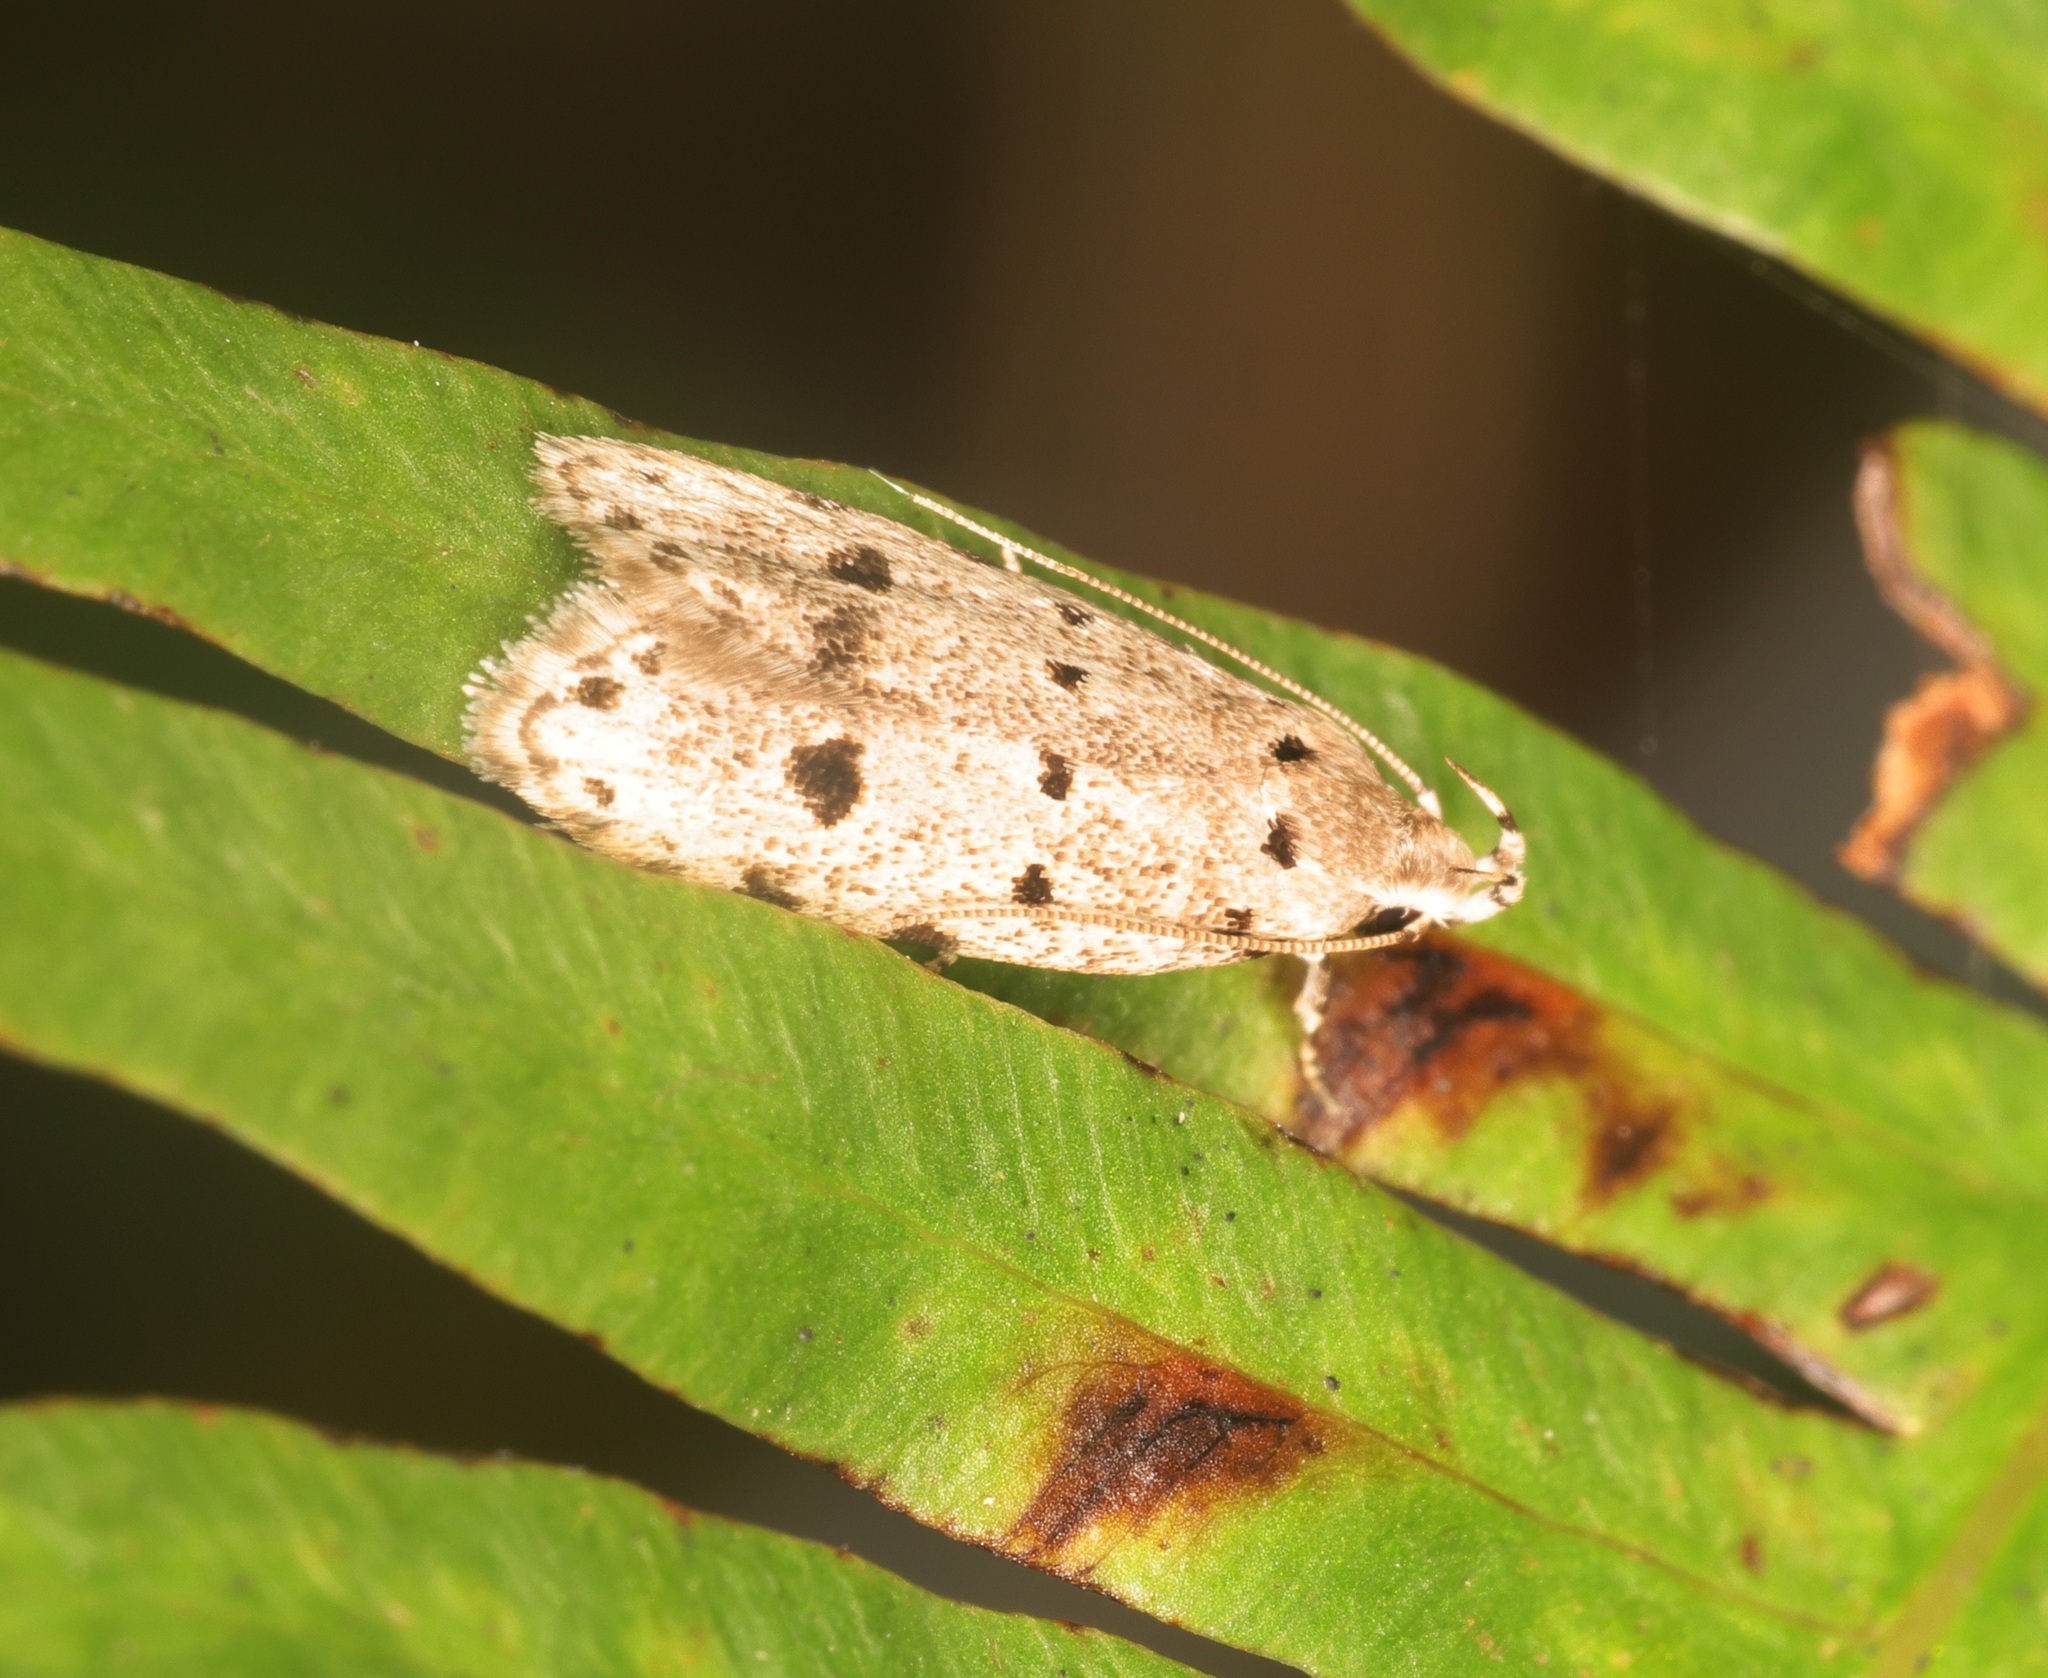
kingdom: Animalia
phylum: Arthropoda
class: Insecta
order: Lepidoptera
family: Autostichidae
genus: Autosticha
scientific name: Autosticha calceata
